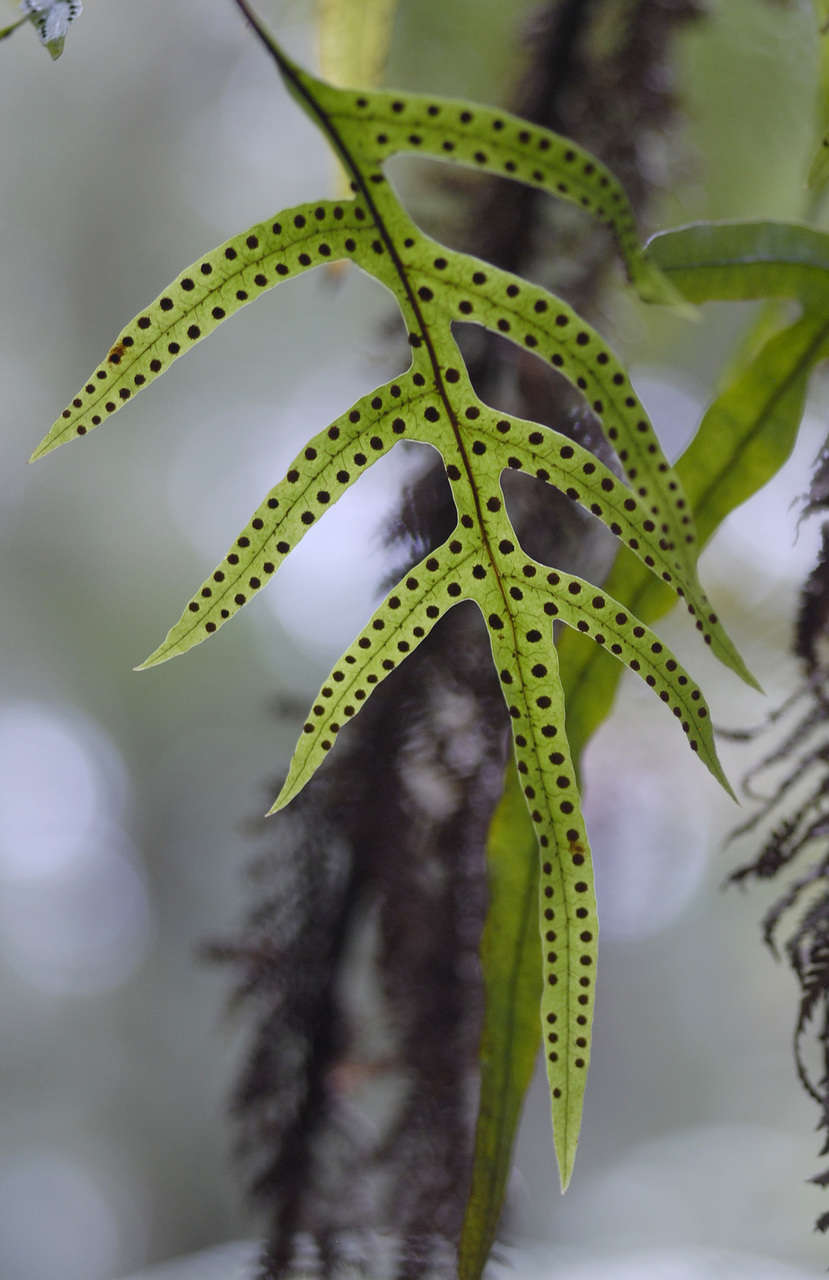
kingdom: Plantae
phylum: Tracheophyta
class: Polypodiopsida
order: Polypodiales
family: Polypodiaceae
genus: Lecanopteris
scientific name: Lecanopteris pustulata
